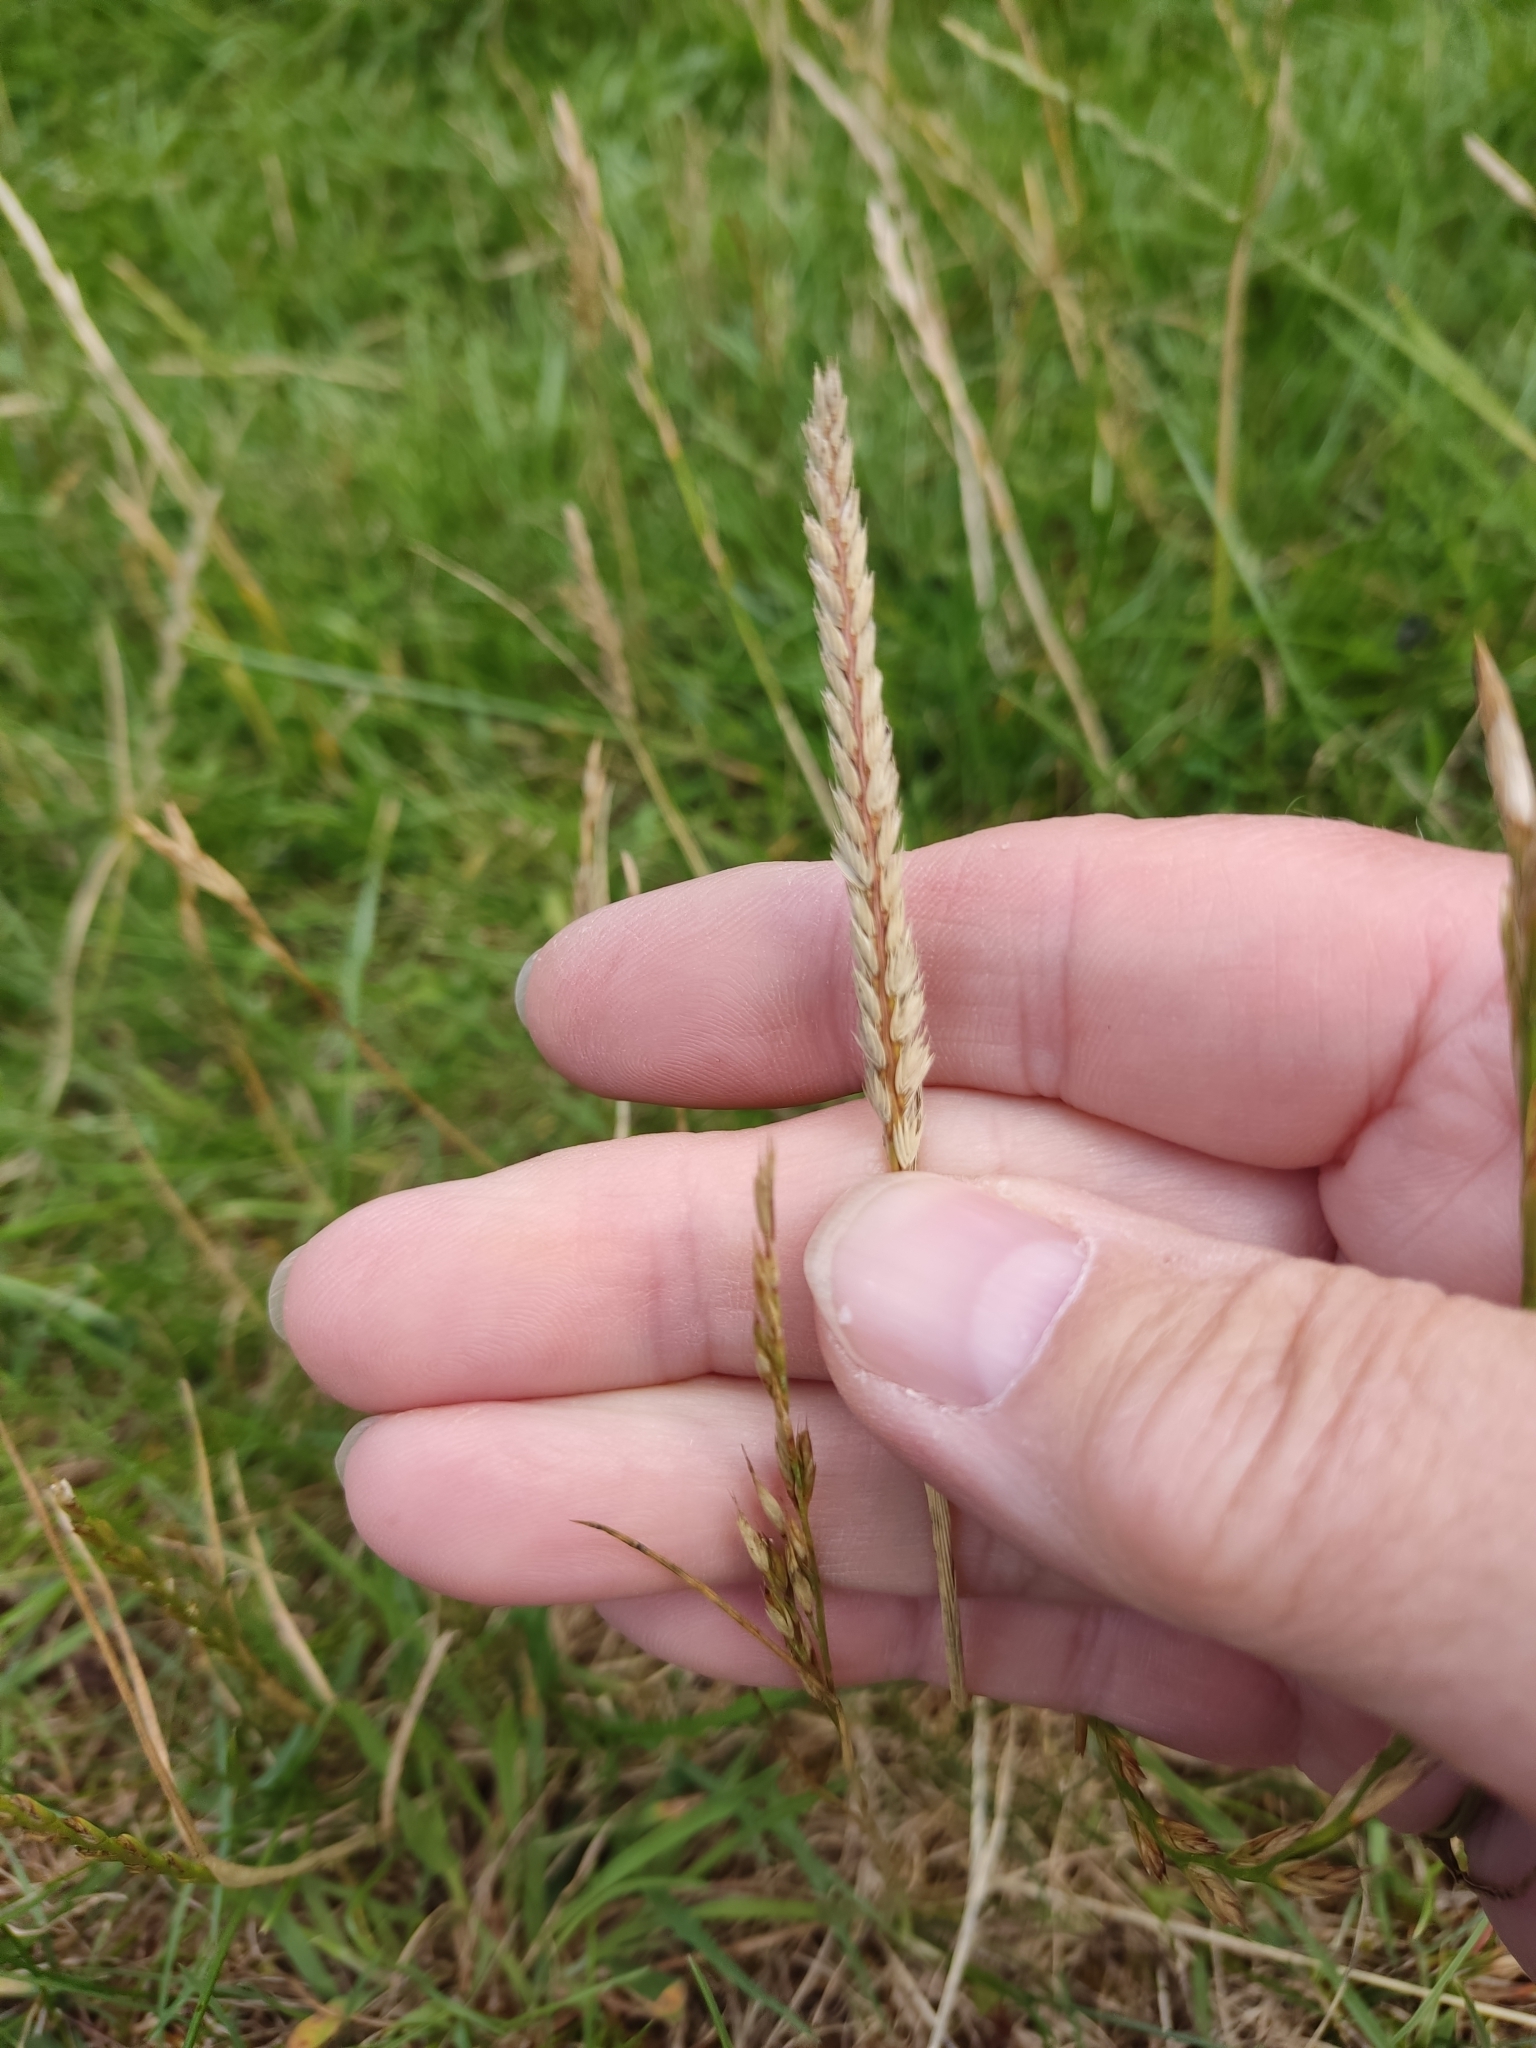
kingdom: Plantae
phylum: Tracheophyta
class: Liliopsida
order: Poales
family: Poaceae
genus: Cynosurus
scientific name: Cynosurus cristatus
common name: Crested dog's-tail
